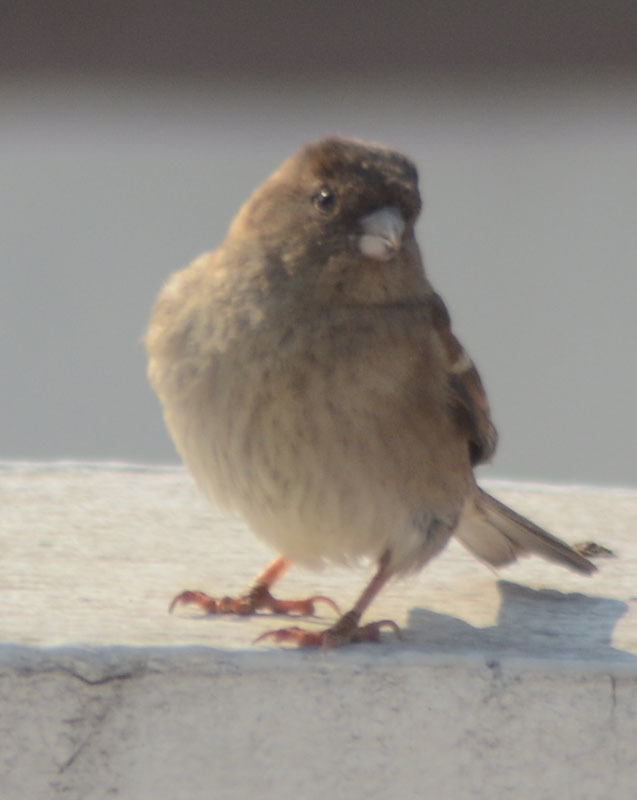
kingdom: Animalia
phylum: Chordata
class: Aves
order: Passeriformes
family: Passeridae
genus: Passer
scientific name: Passer domesticus
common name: House sparrow
